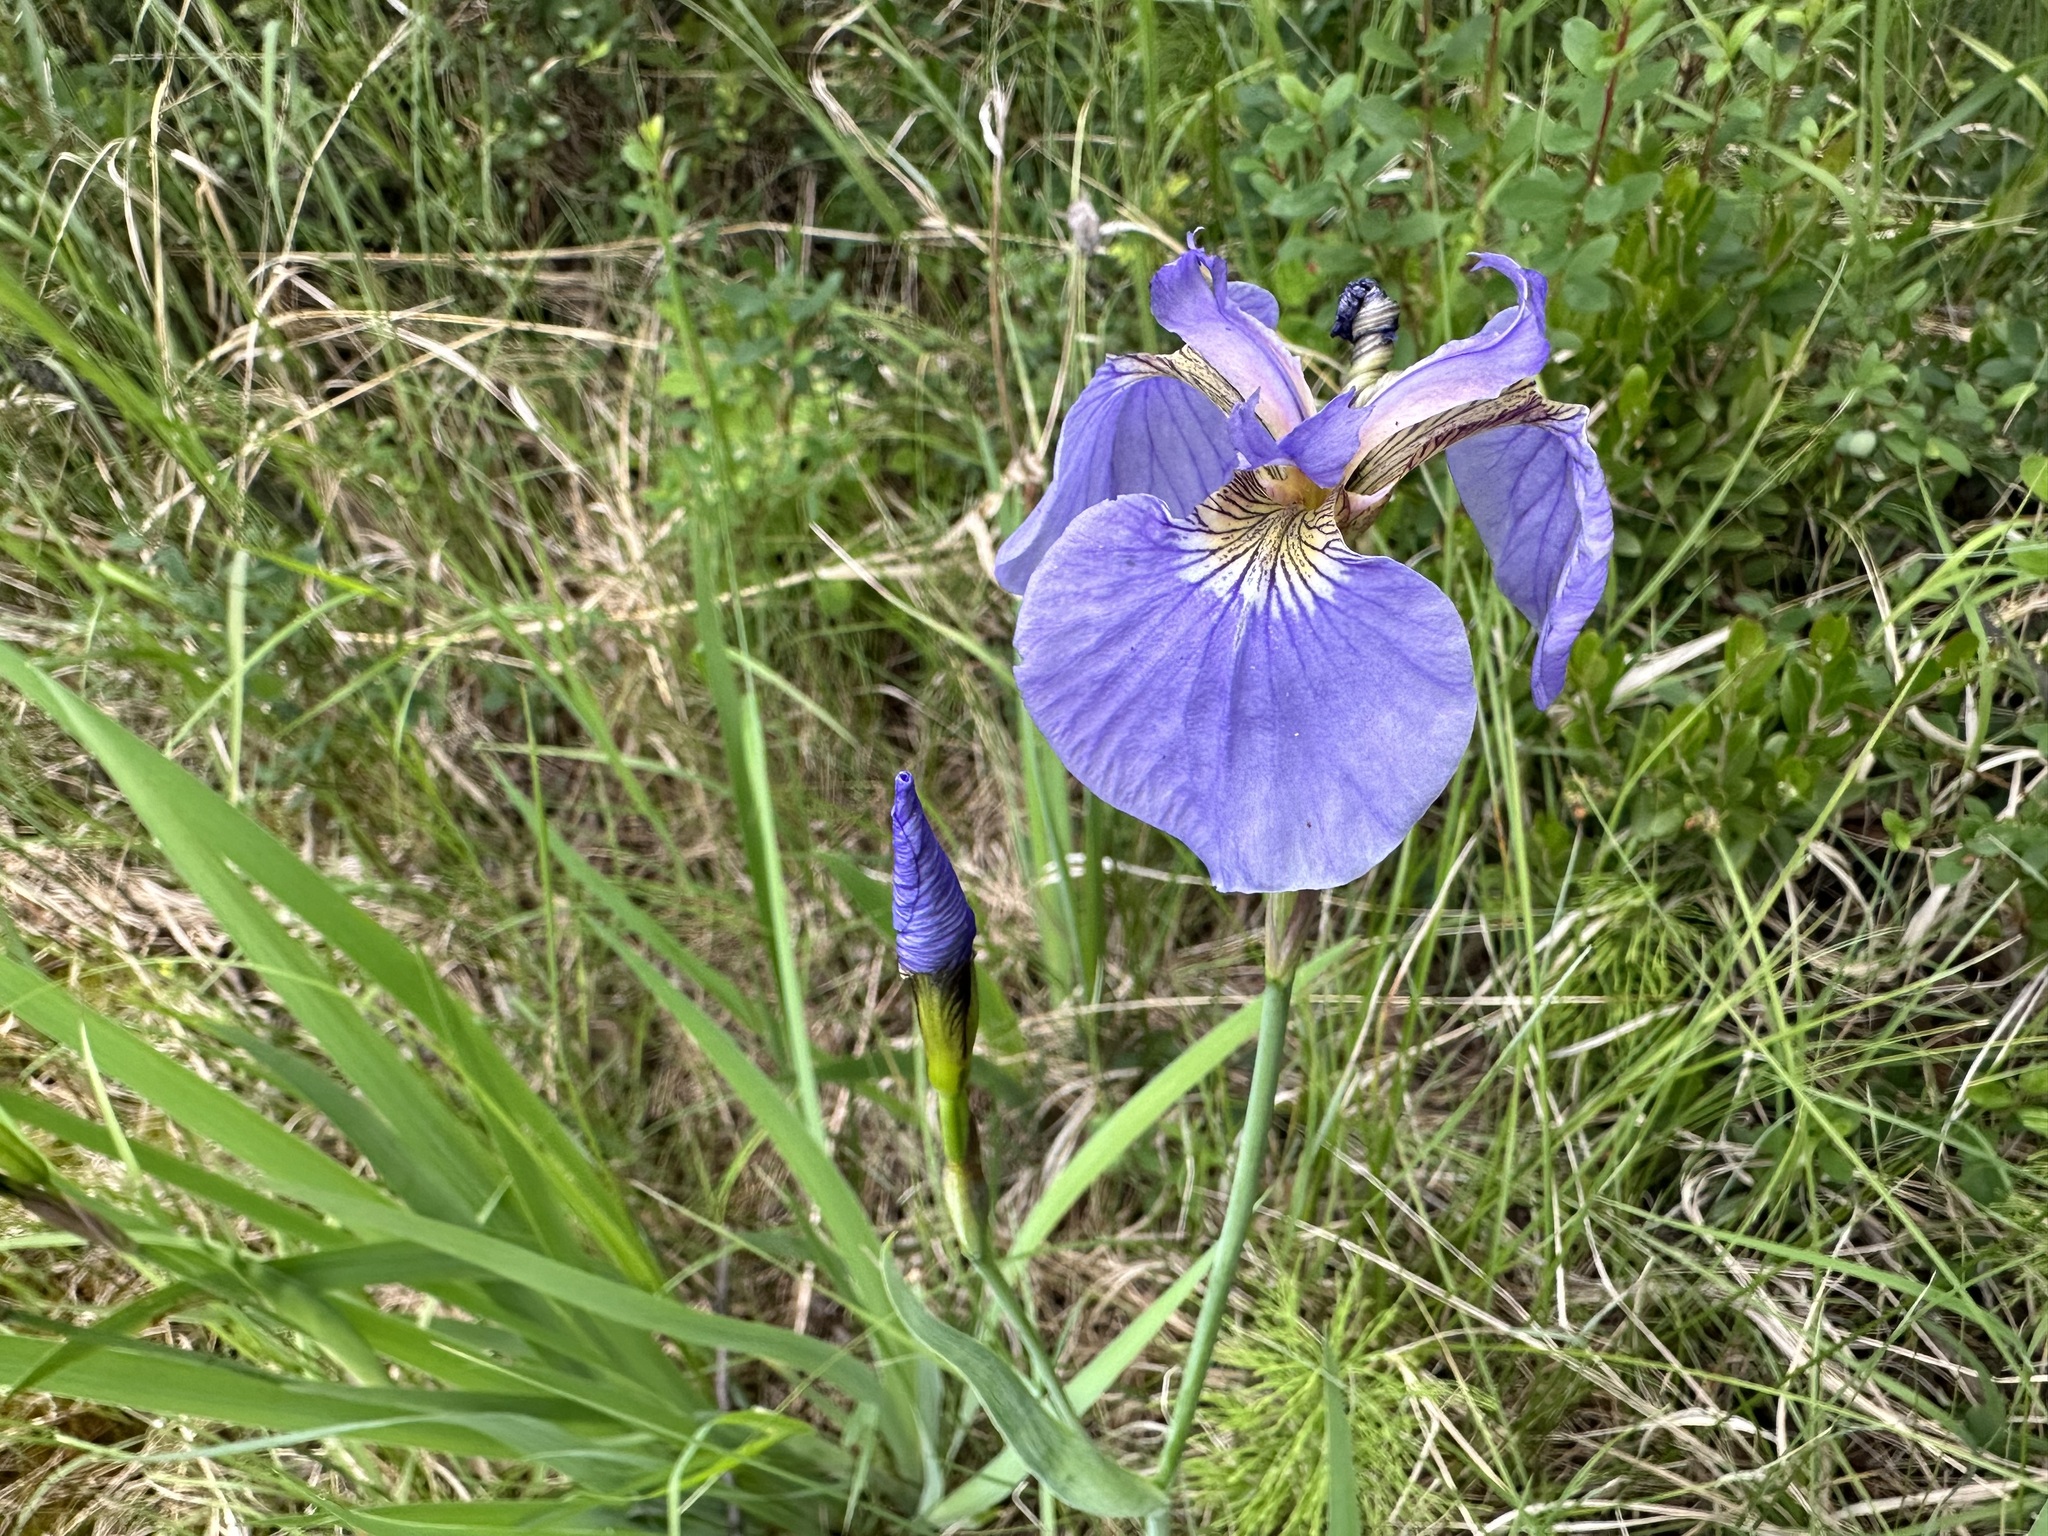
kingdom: Plantae
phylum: Tracheophyta
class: Liliopsida
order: Asparagales
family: Iridaceae
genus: Iris
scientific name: Iris setosa
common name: Arctic blue flag
